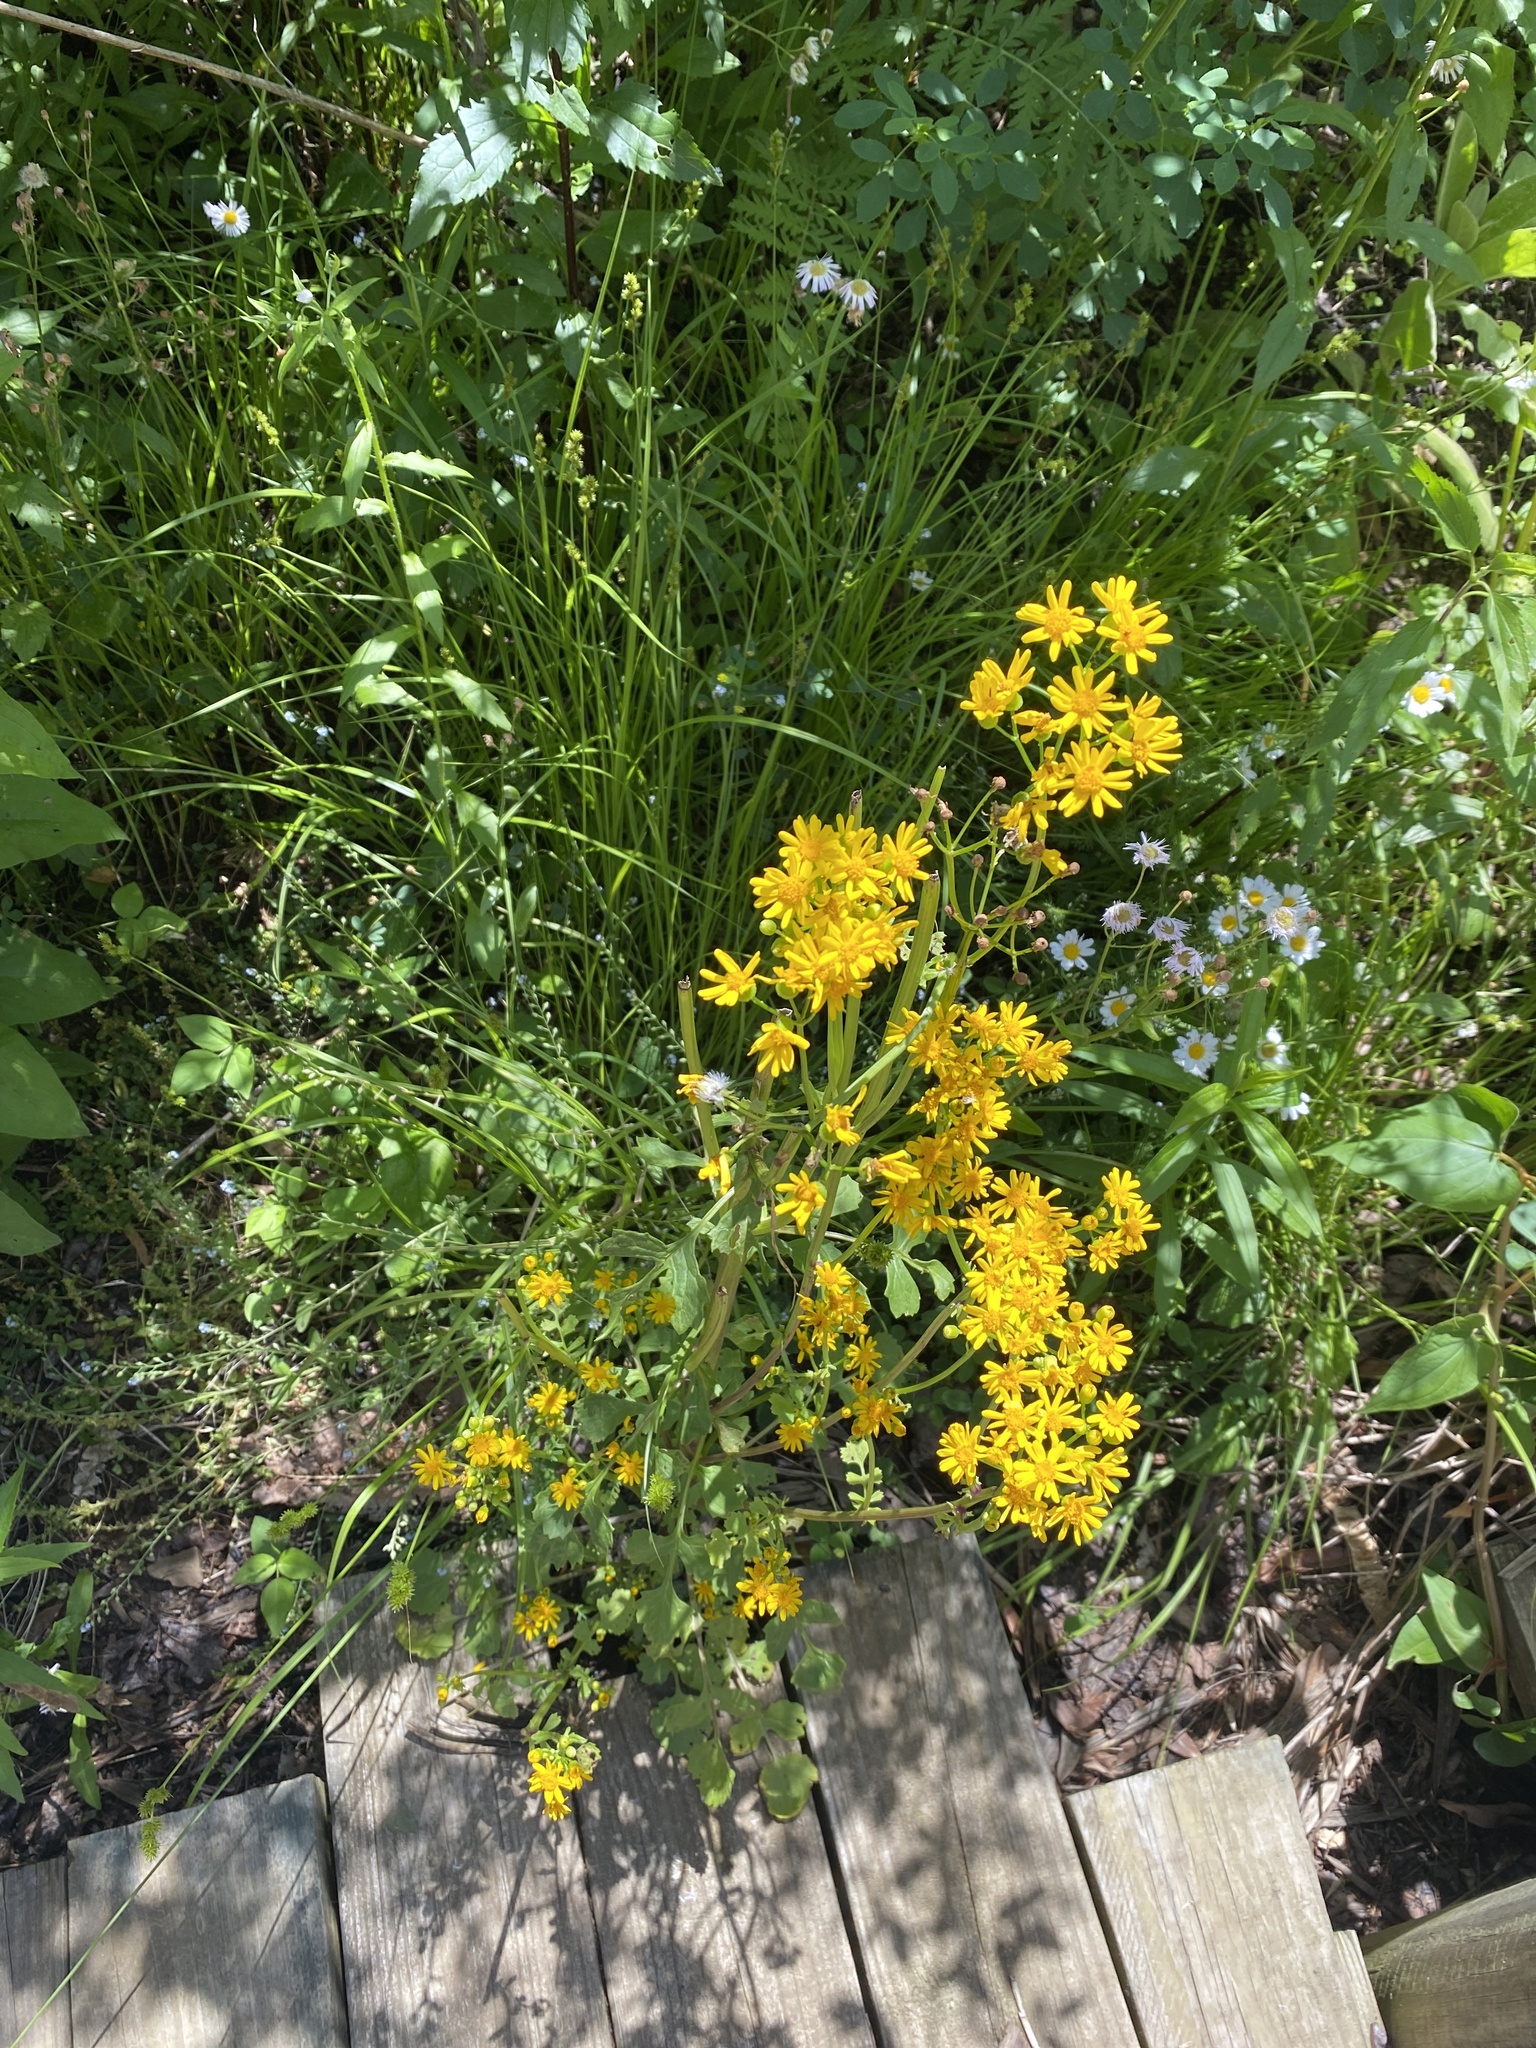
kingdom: Plantae
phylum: Tracheophyta
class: Magnoliopsida
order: Asterales
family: Asteraceae
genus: Packera
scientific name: Packera glabella
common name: Butterweed
